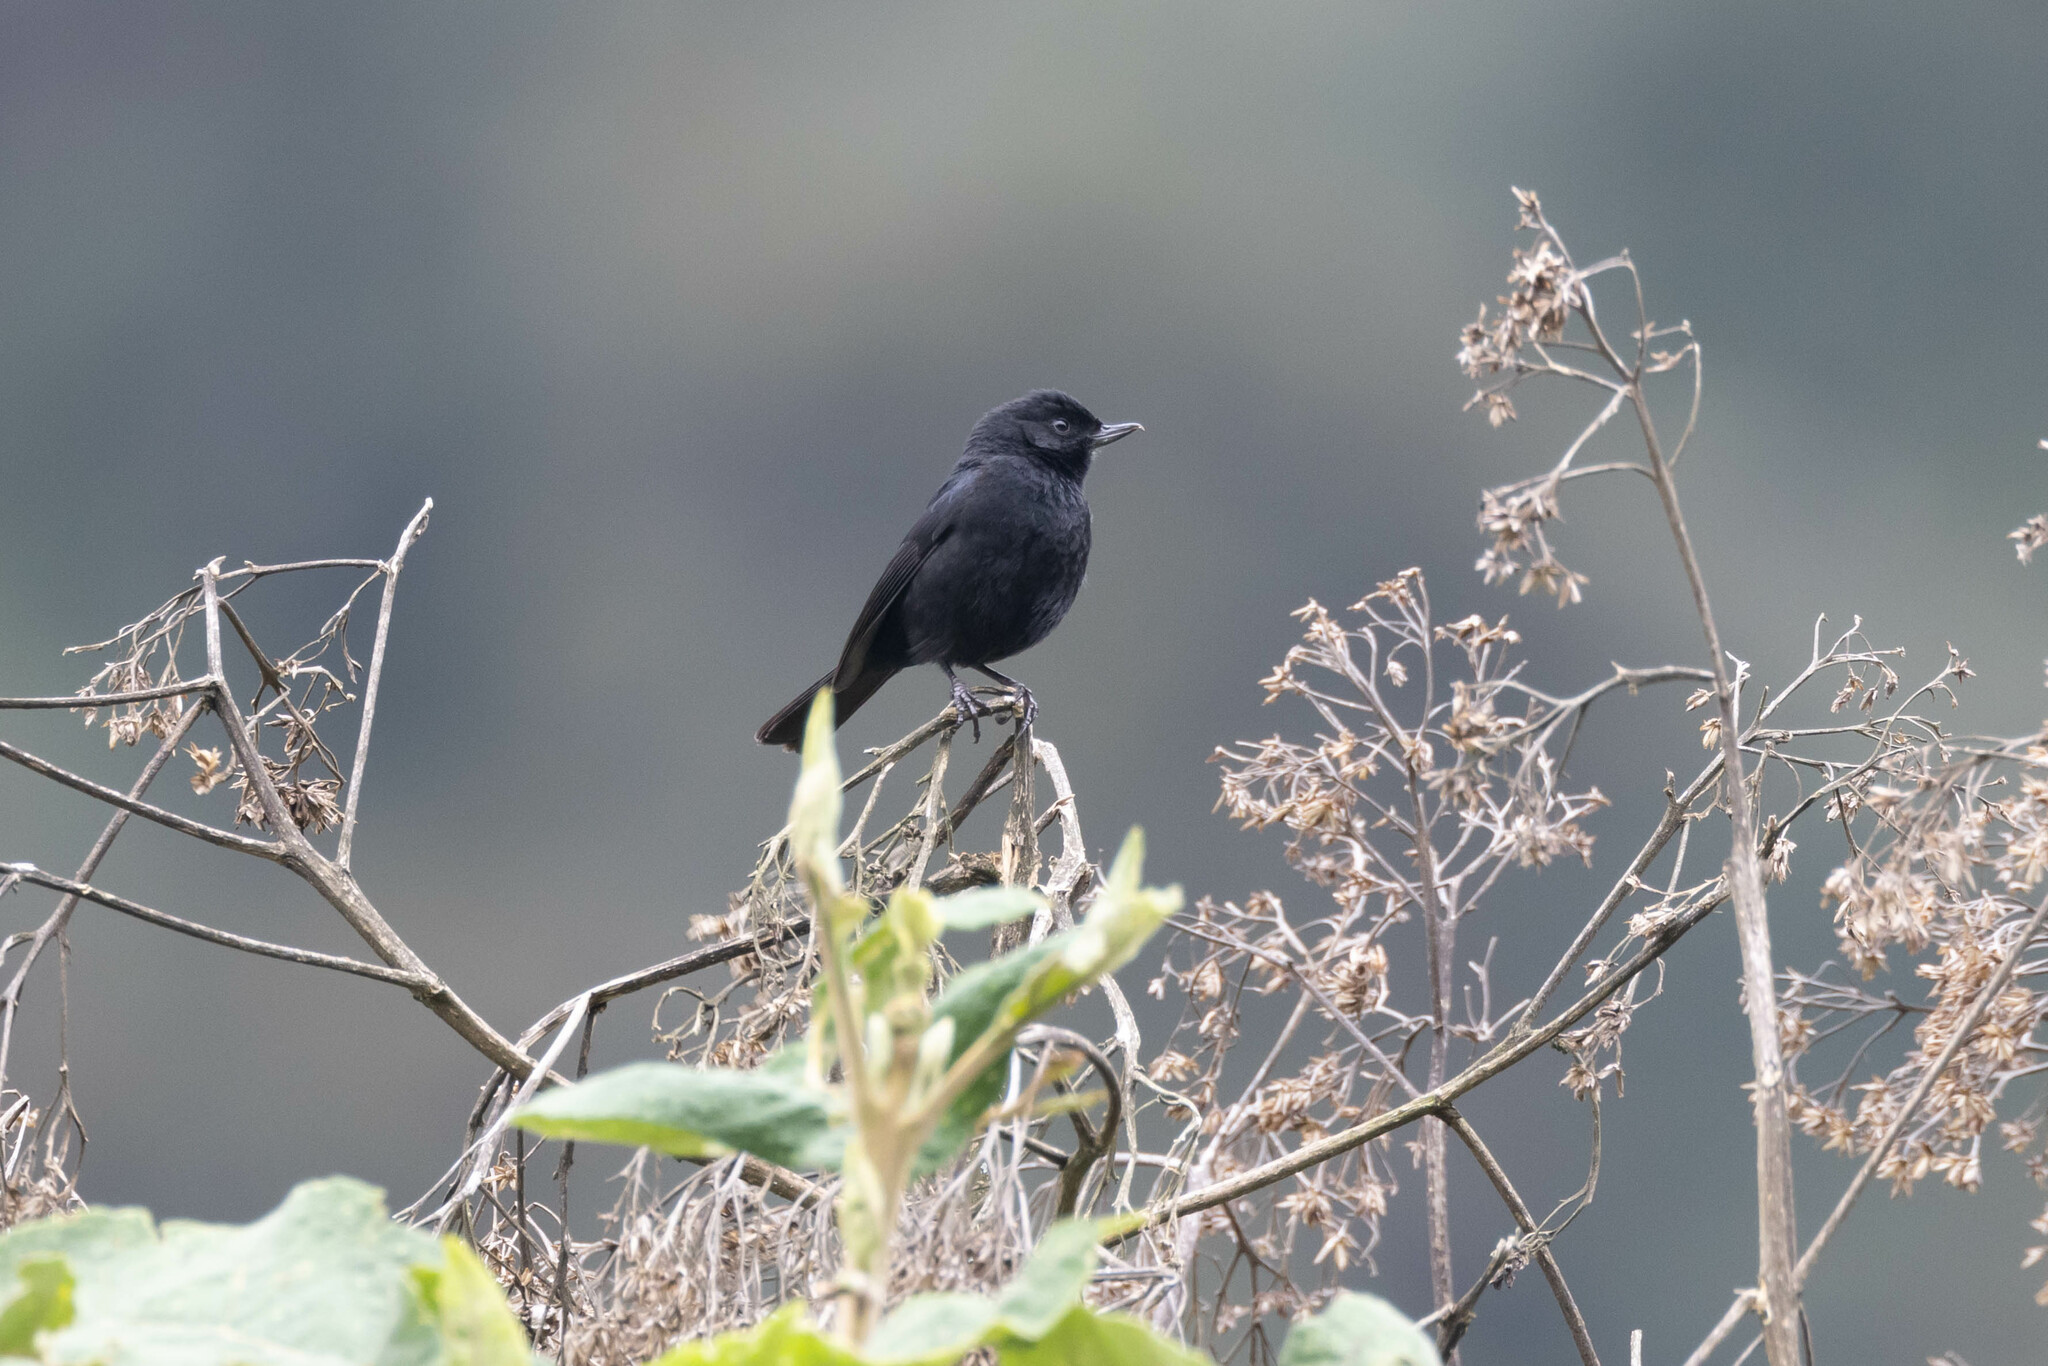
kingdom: Animalia
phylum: Chordata
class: Aves
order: Passeriformes
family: Thraupidae
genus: Diglossa
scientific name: Diglossa humeralis
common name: Black flowerpiercer
